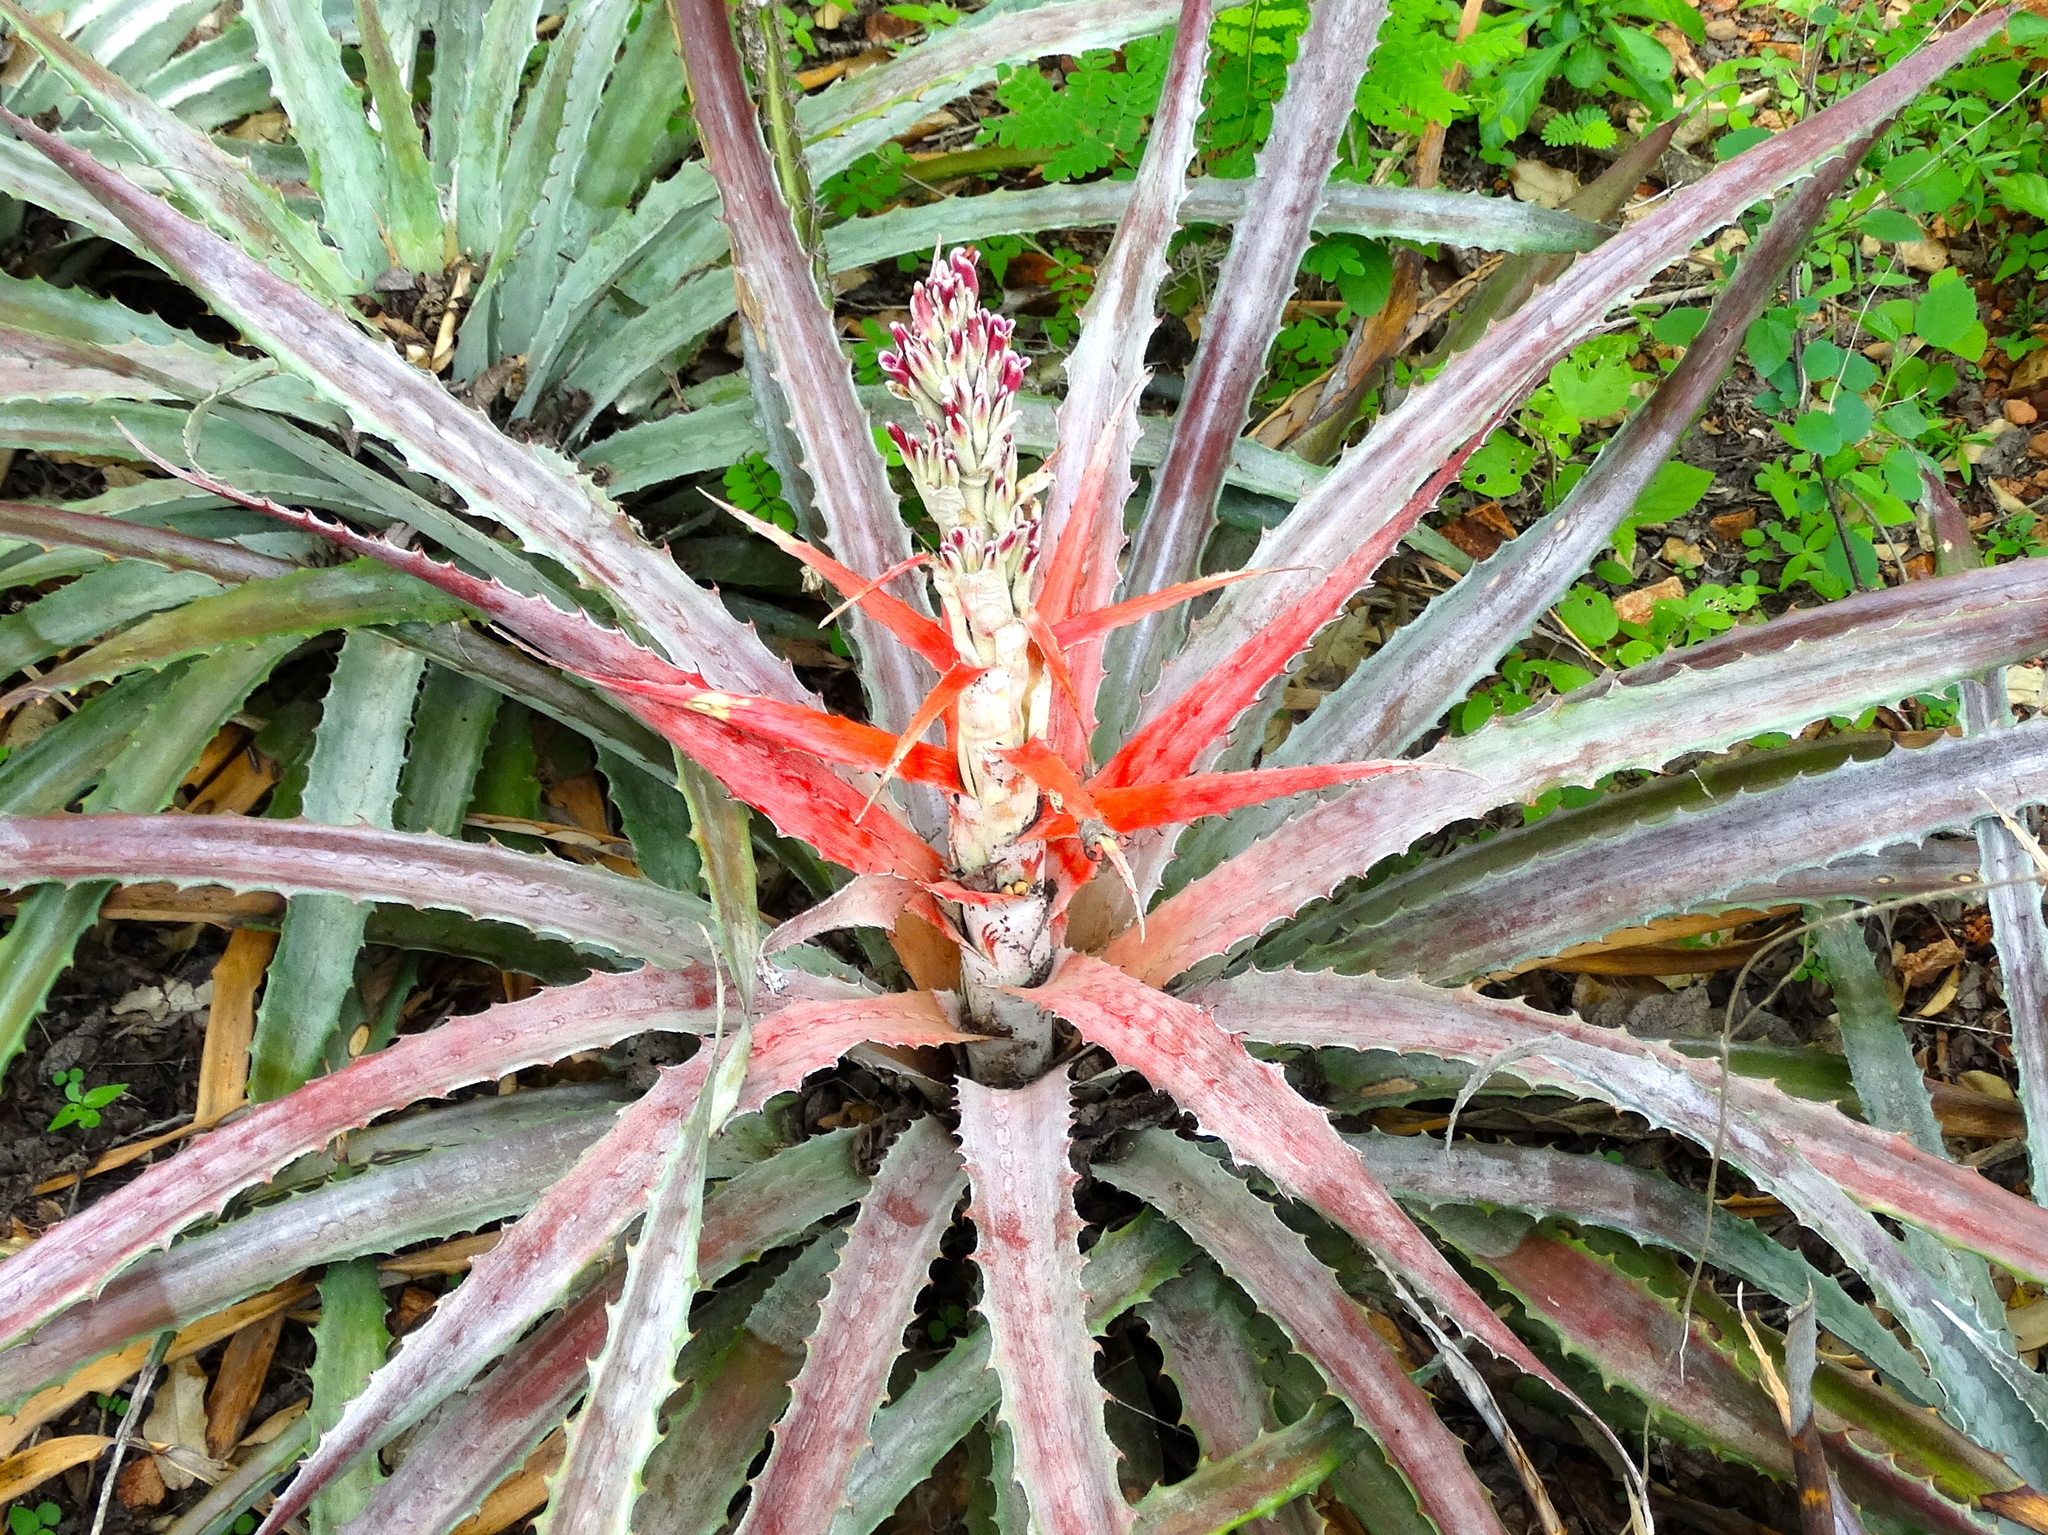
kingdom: Plantae
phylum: Tracheophyta
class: Liliopsida
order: Poales
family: Bromeliaceae
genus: Bromelia
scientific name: Bromelia pinguin
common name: Pinguin
